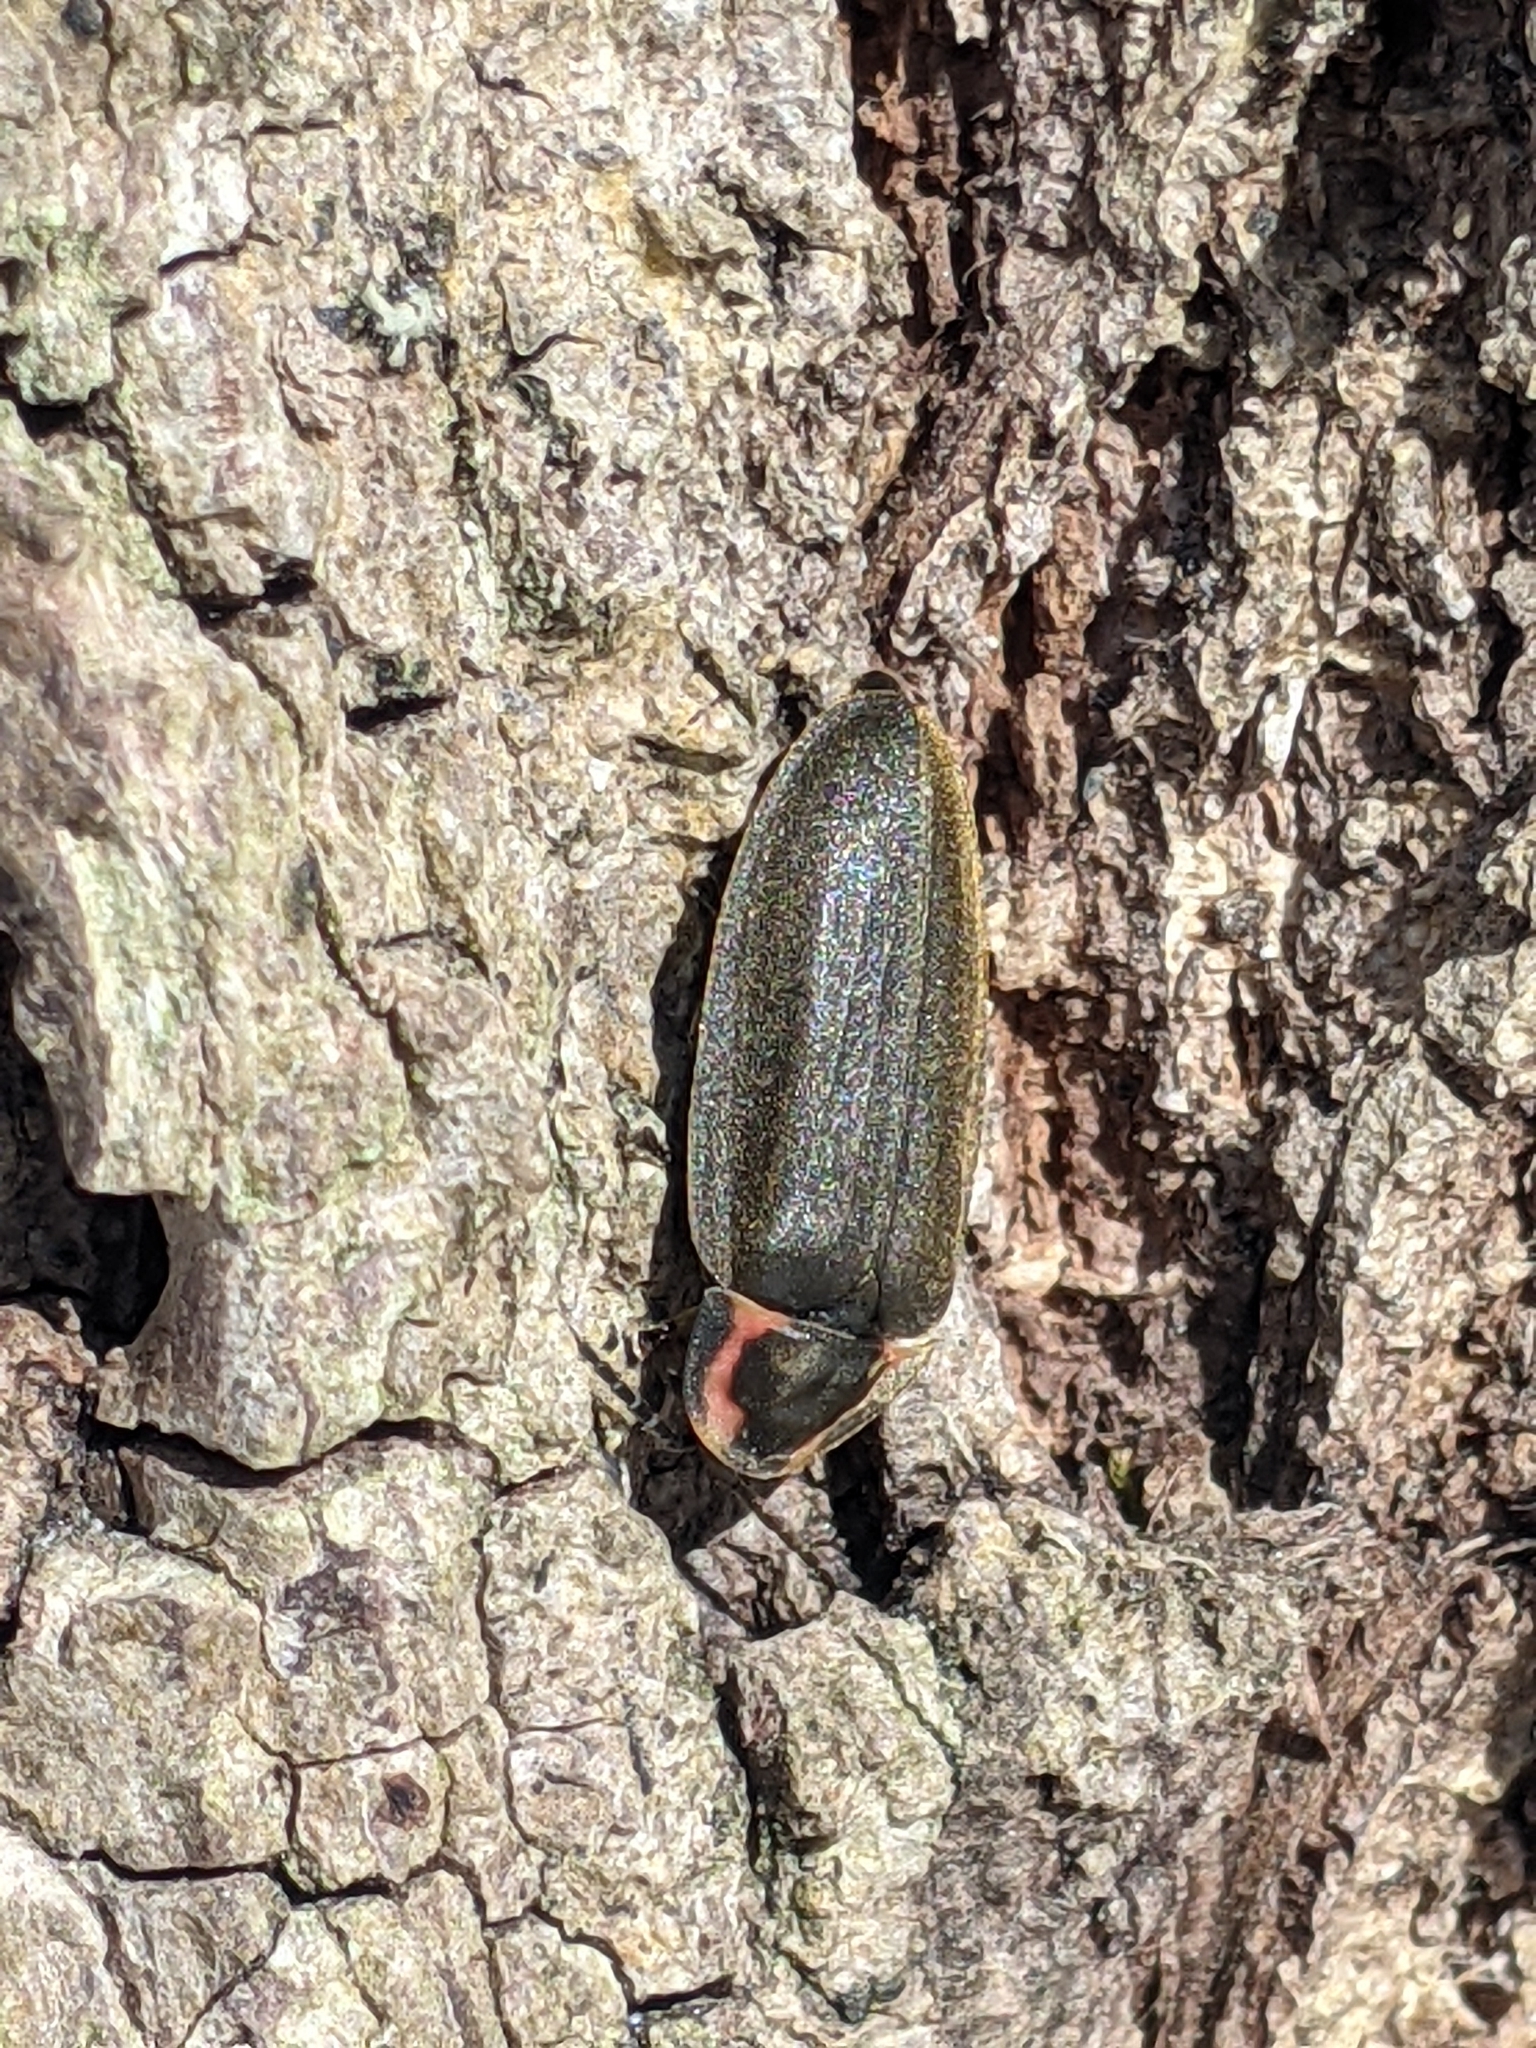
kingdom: Animalia
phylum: Arthropoda
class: Insecta
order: Coleoptera
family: Lampyridae
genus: Photinus
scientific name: Photinus corrusca
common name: Winter firefly
